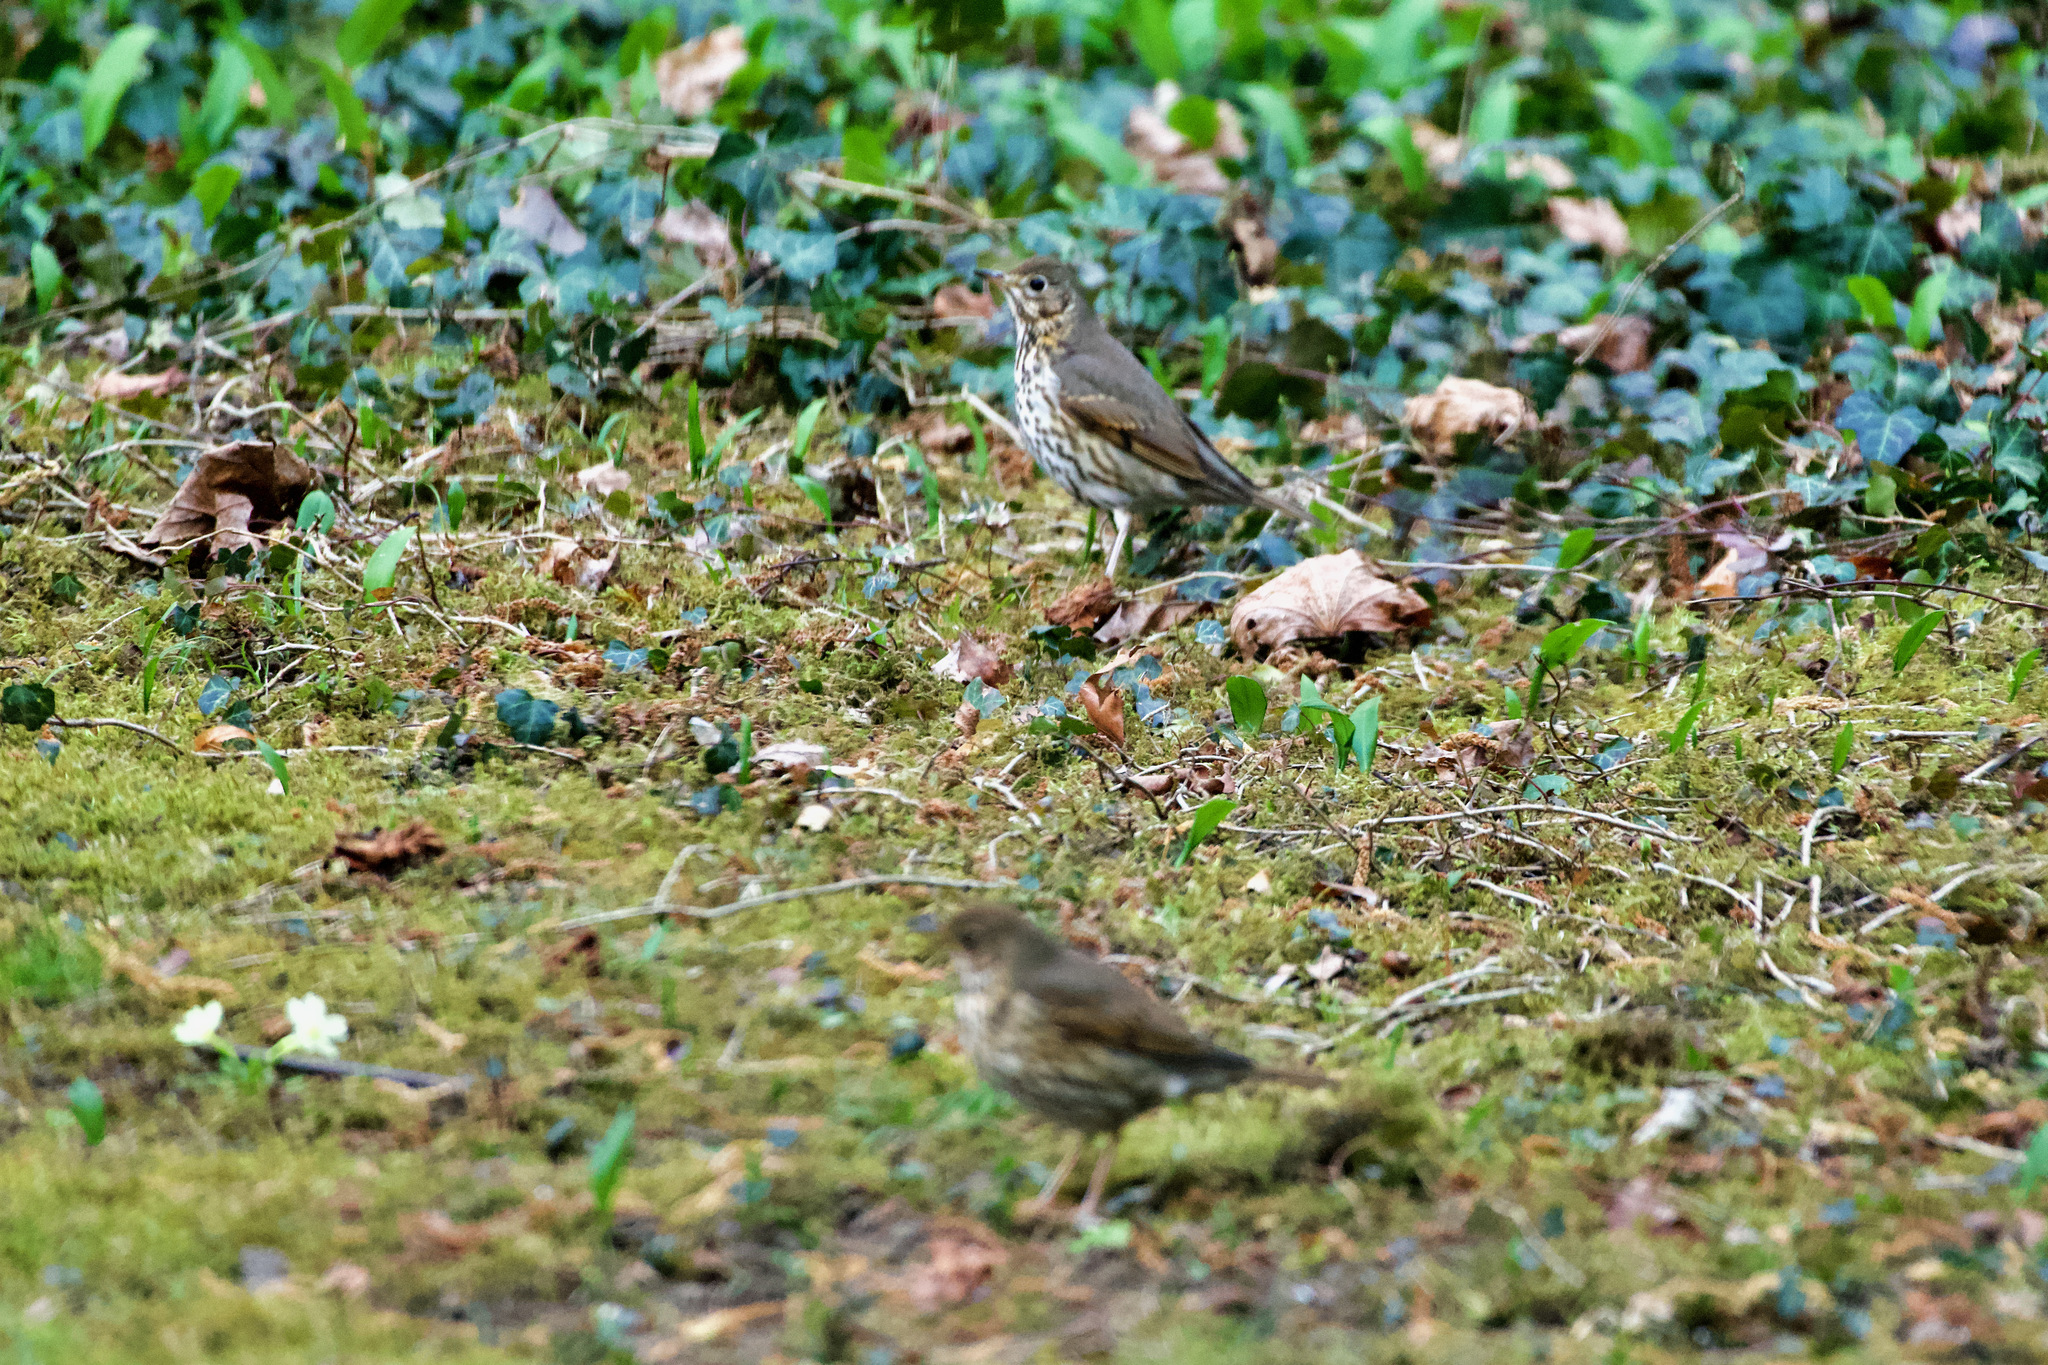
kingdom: Animalia
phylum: Chordata
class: Aves
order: Passeriformes
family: Turdidae
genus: Turdus
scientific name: Turdus philomelos
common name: Song thrush
